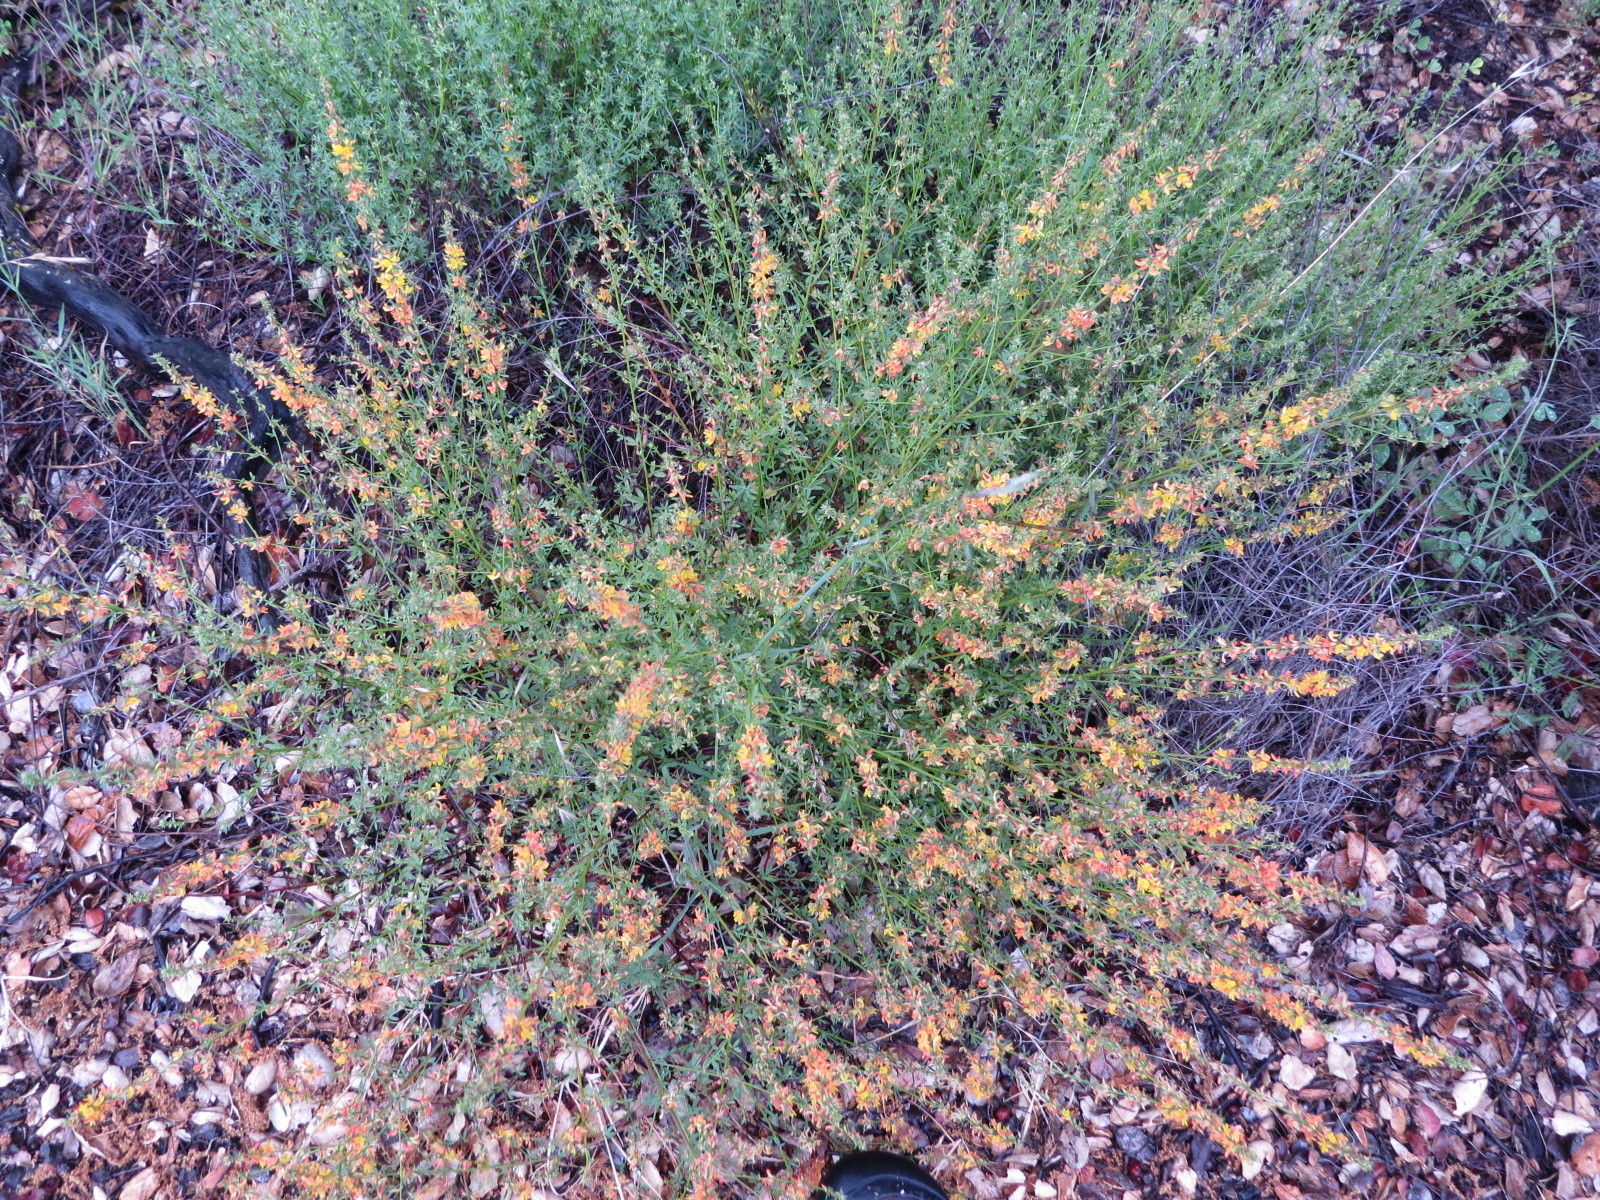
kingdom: Plantae
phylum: Tracheophyta
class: Magnoliopsida
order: Fabales
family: Fabaceae
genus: Acmispon
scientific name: Acmispon glaber
